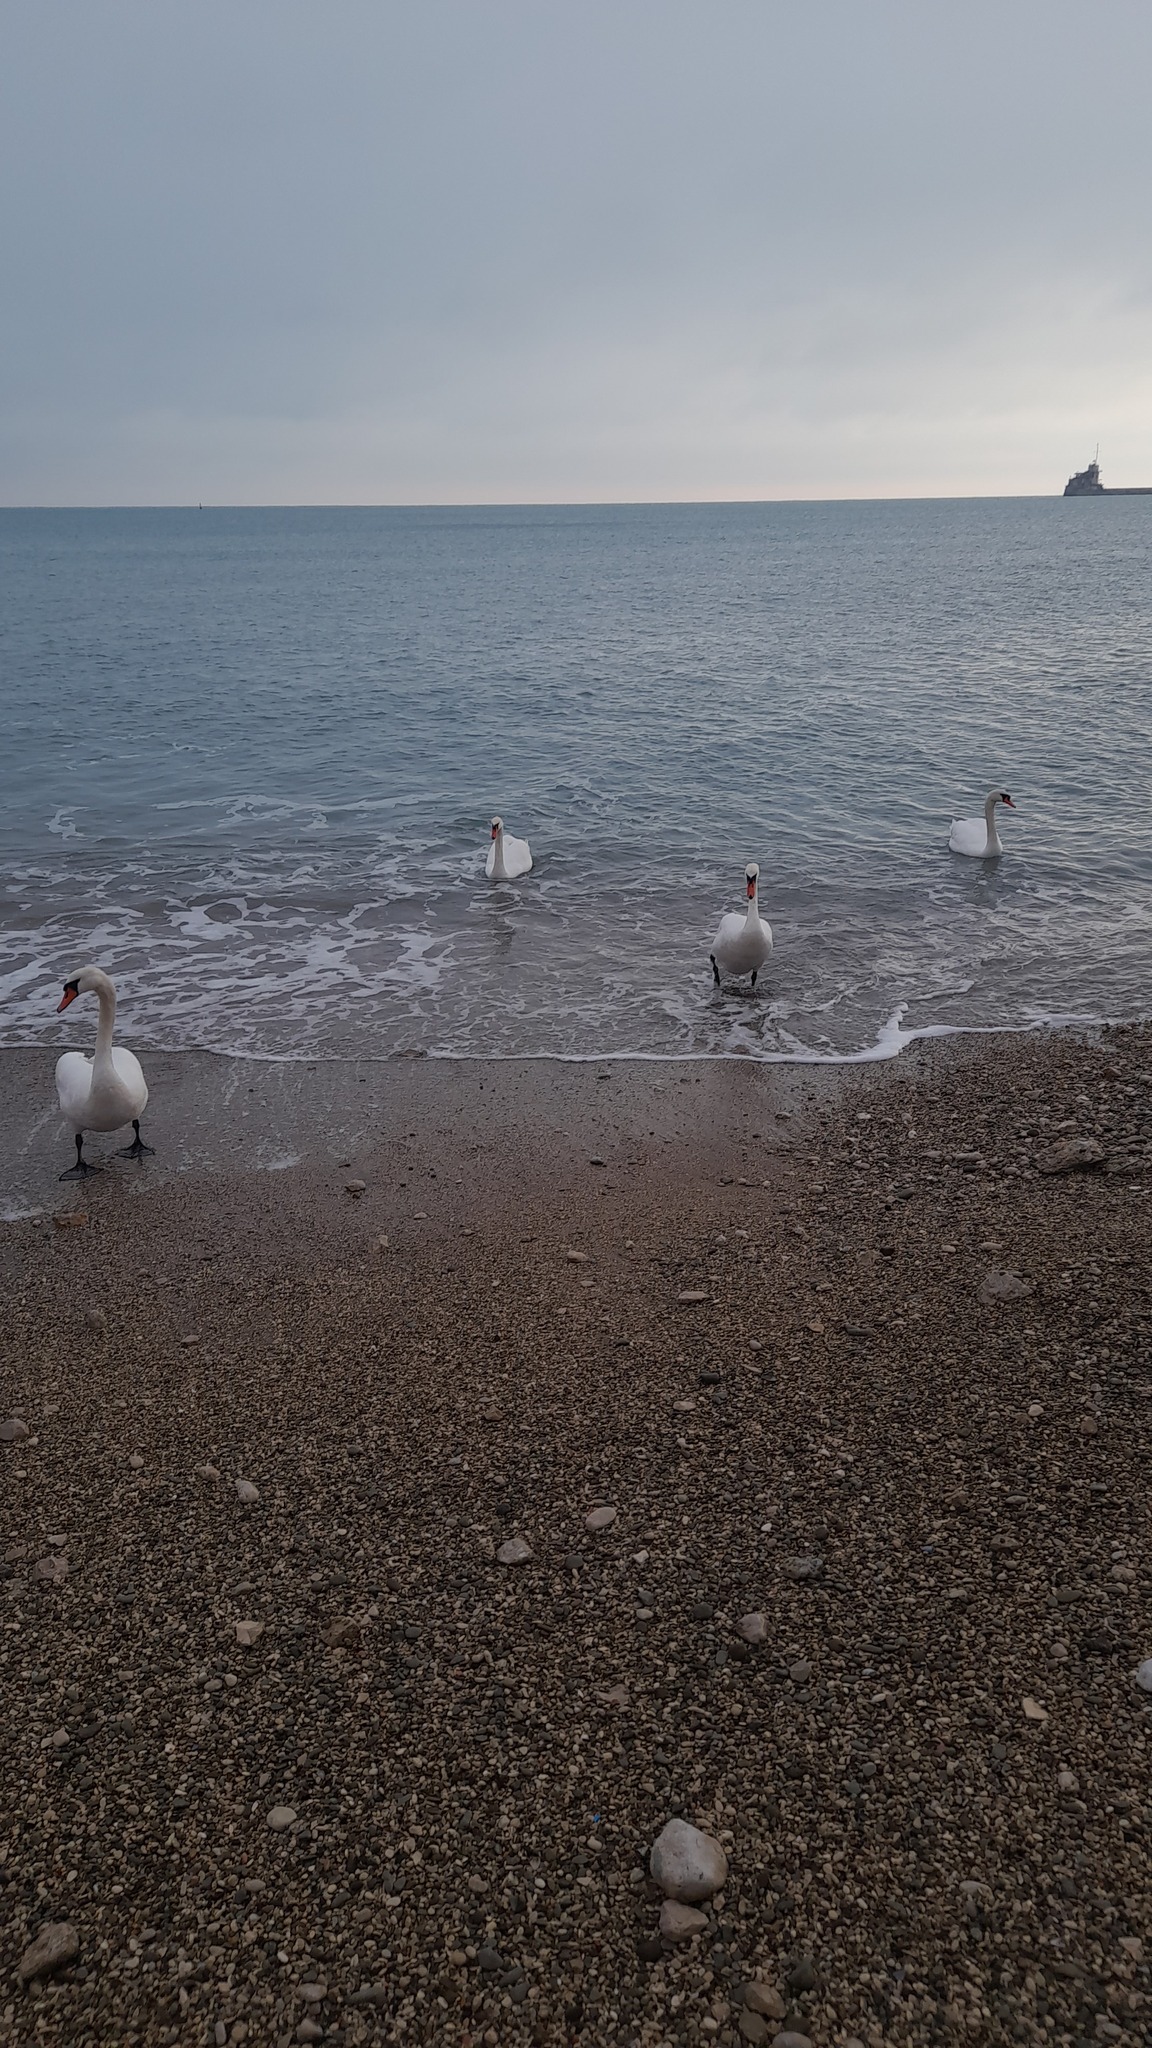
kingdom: Animalia
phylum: Chordata
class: Aves
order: Anseriformes
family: Anatidae
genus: Cygnus
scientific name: Cygnus olor
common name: Mute swan
